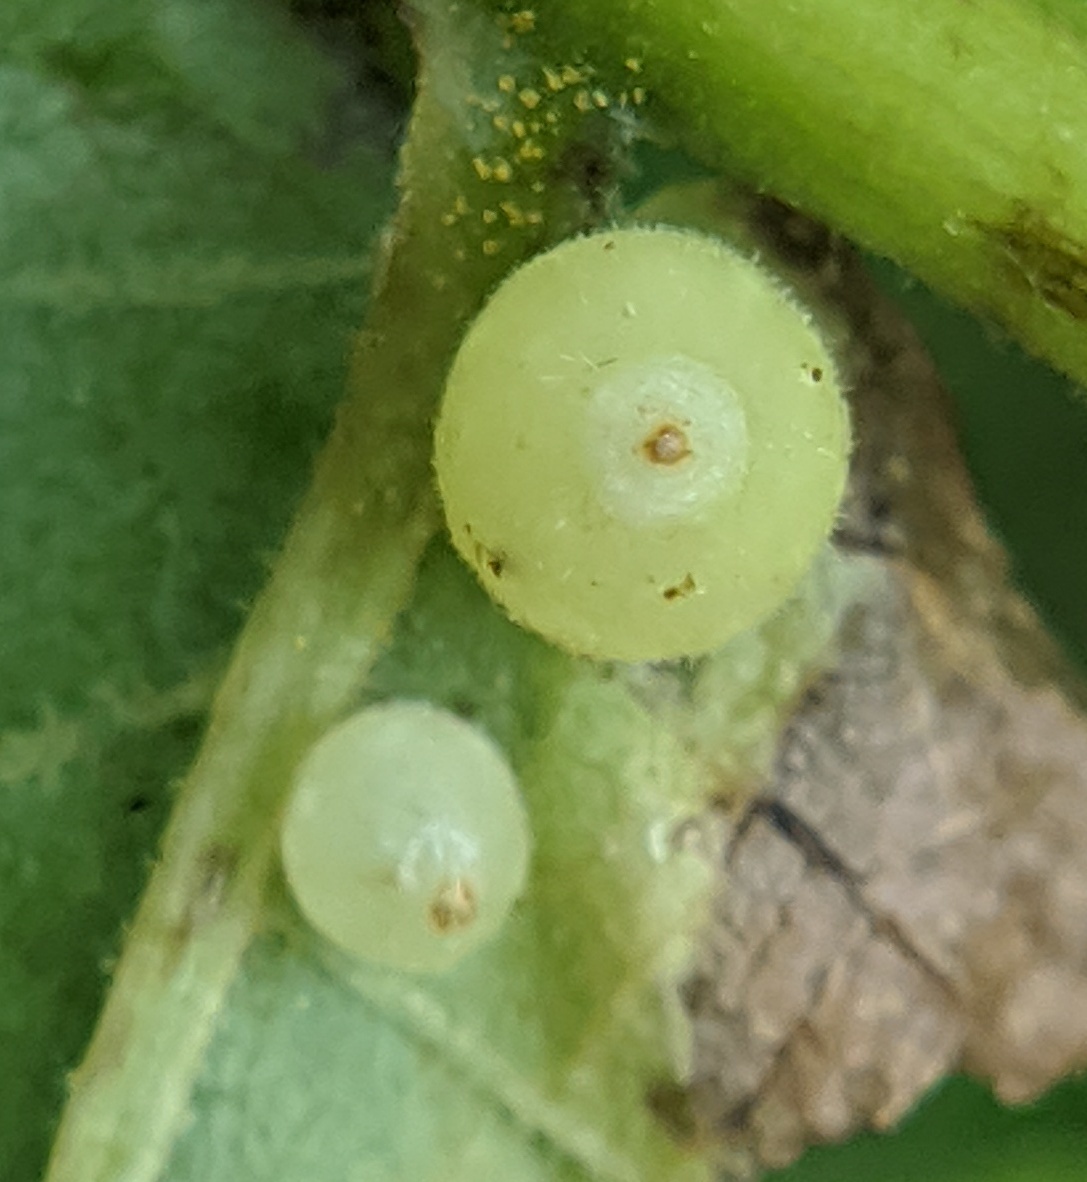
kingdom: Animalia
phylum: Arthropoda
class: Insecta
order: Diptera
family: Cecidomyiidae
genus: Caryomyia
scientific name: Caryomyia cilidolium
